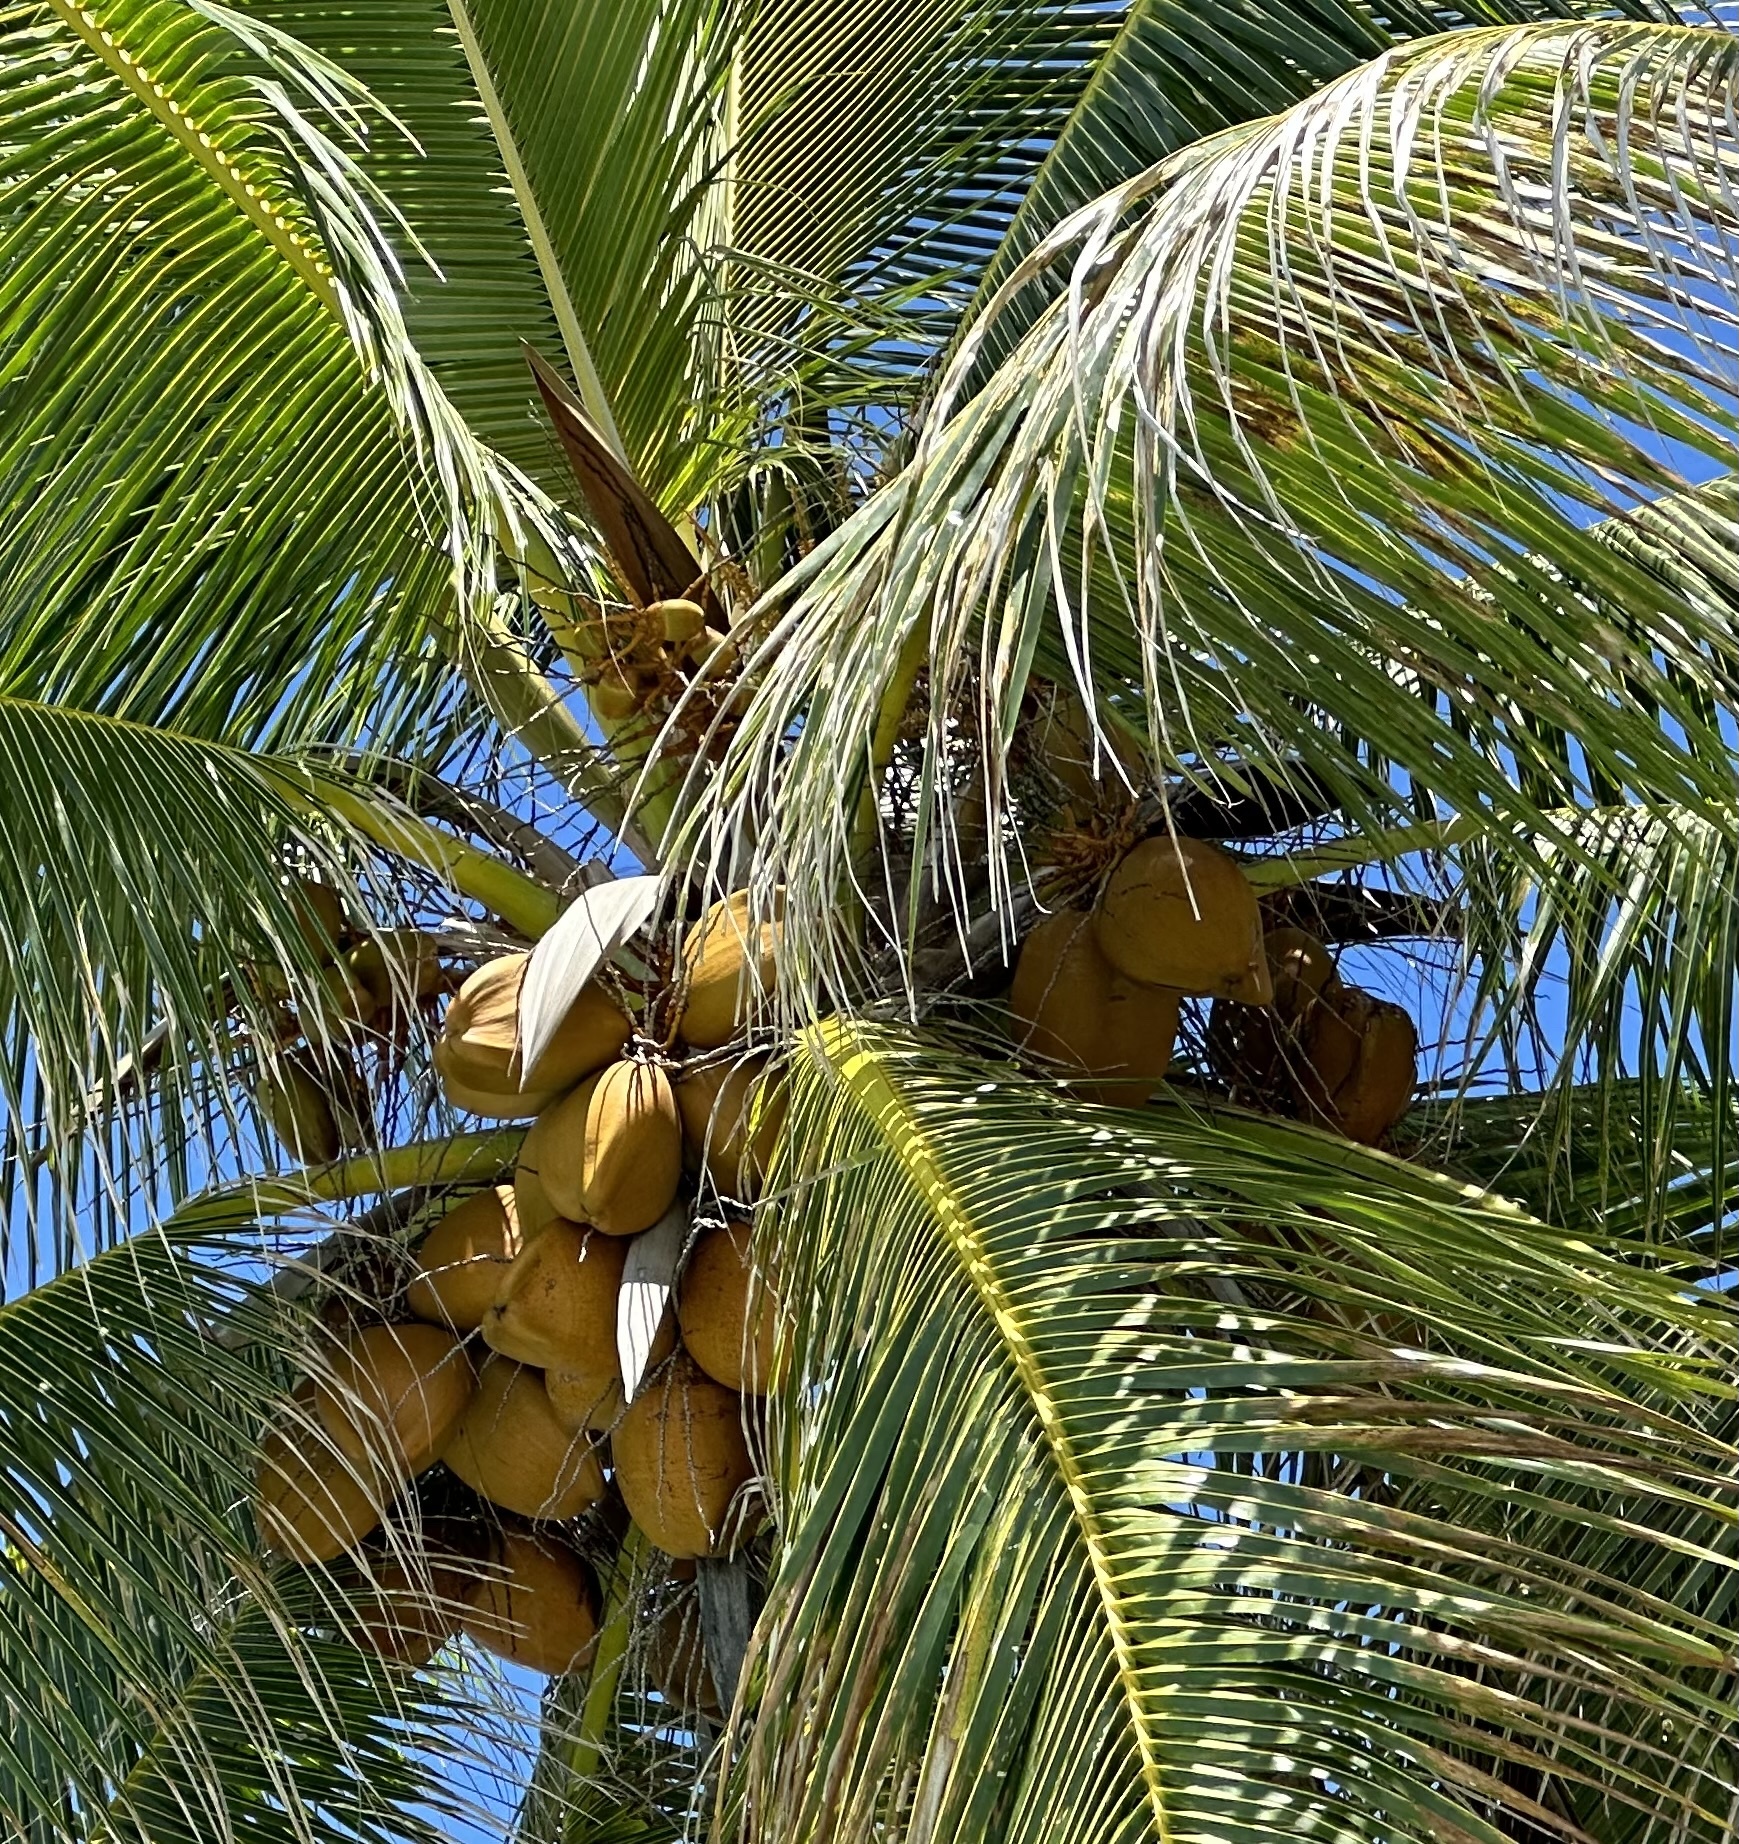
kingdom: Plantae
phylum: Tracheophyta
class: Liliopsida
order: Arecales
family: Arecaceae
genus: Cocos
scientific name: Cocos nucifera
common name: Coconut palm
